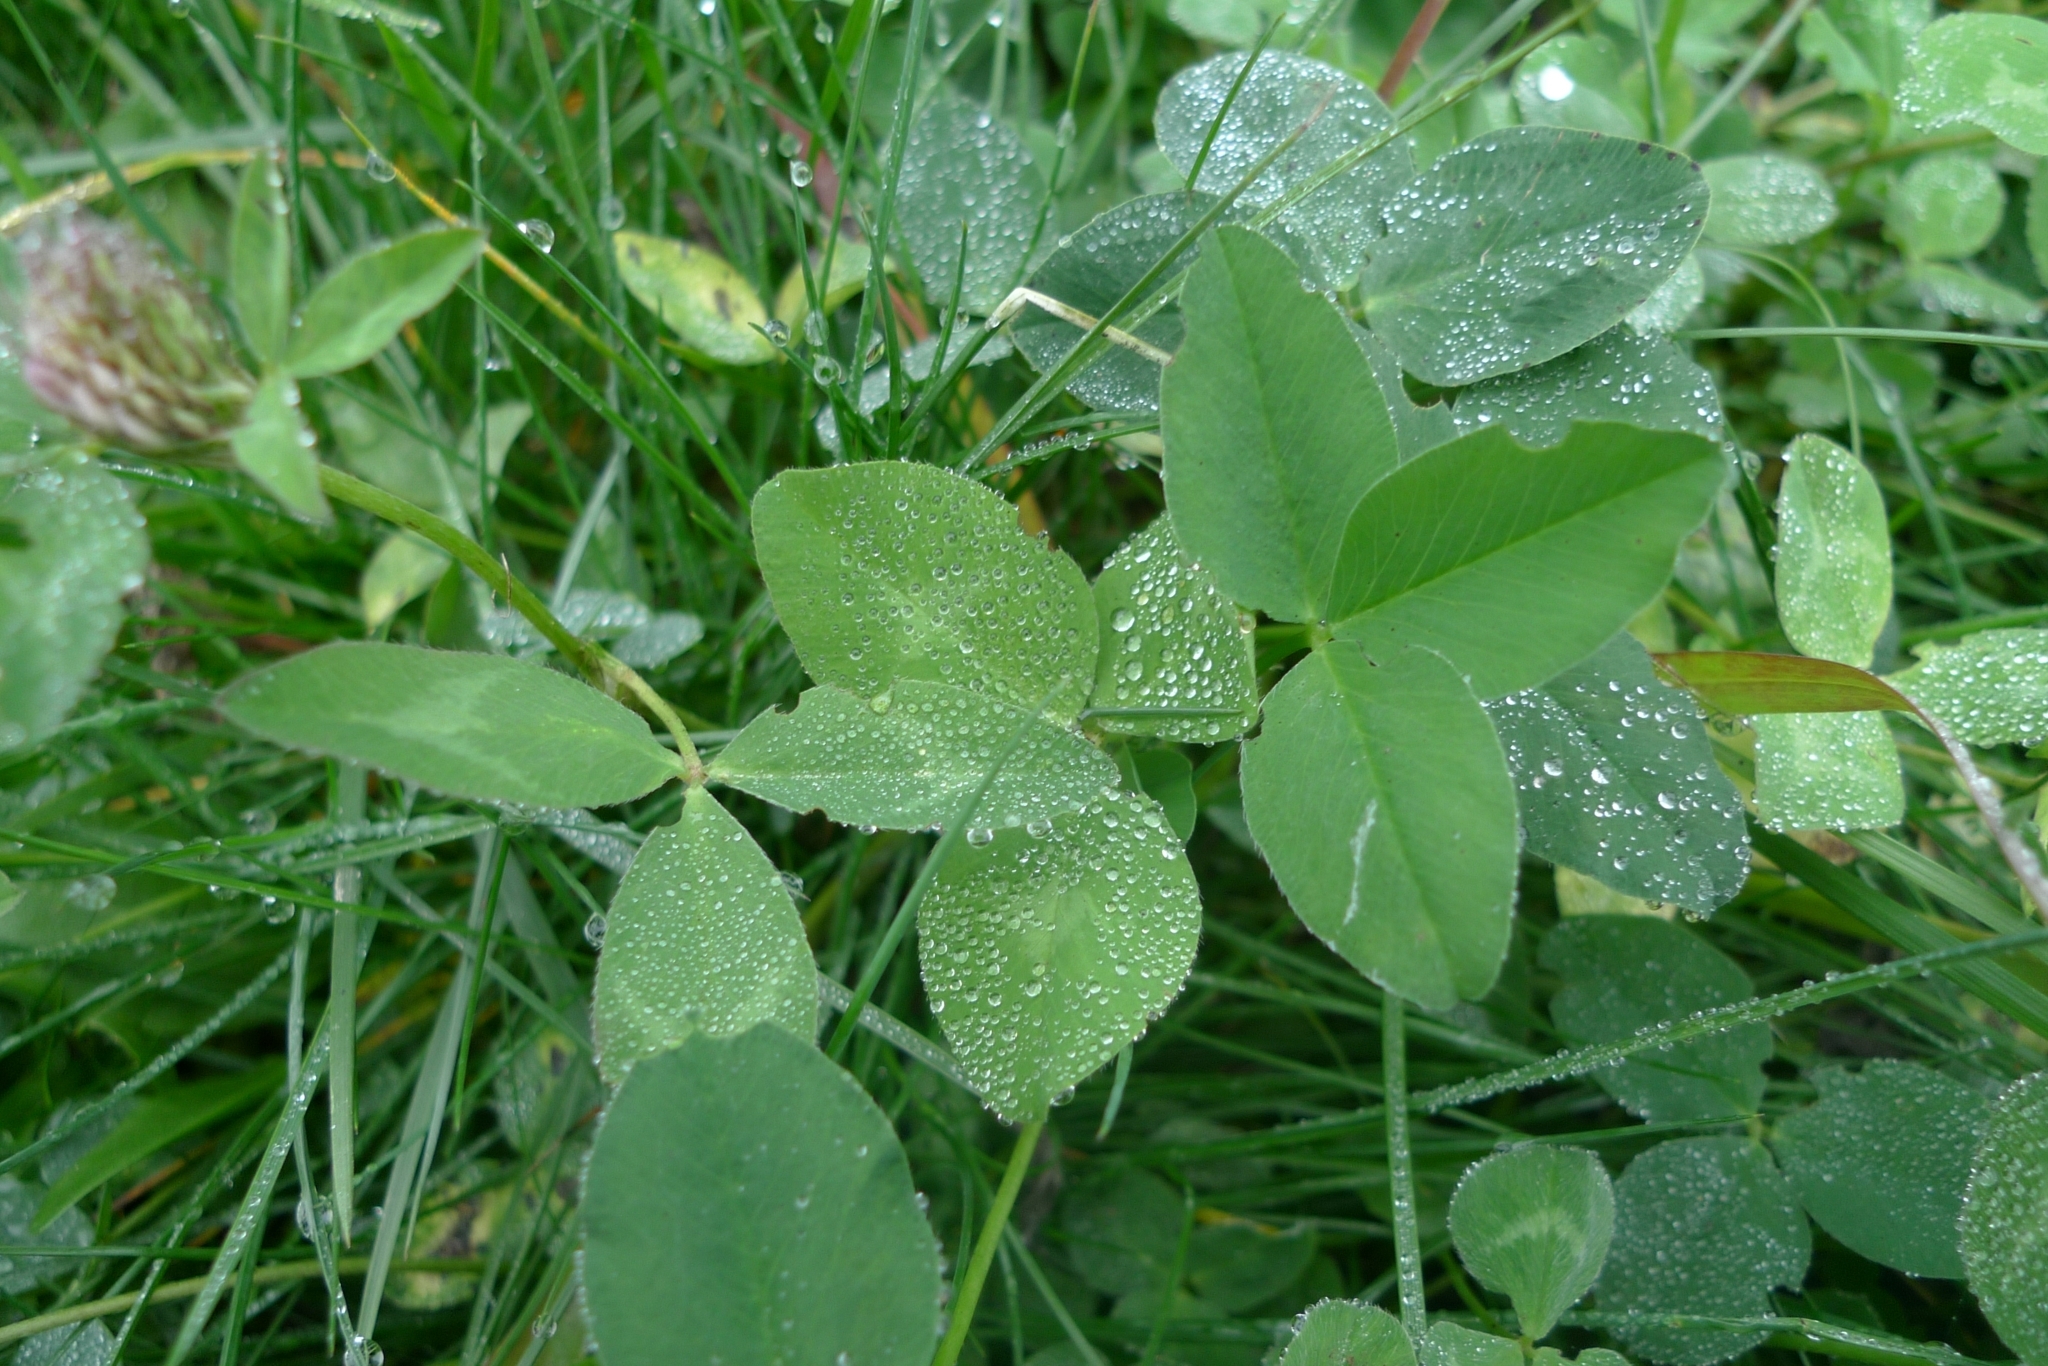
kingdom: Plantae
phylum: Tracheophyta
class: Magnoliopsida
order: Fabales
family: Fabaceae
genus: Trifolium
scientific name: Trifolium pratense
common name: Red clover
